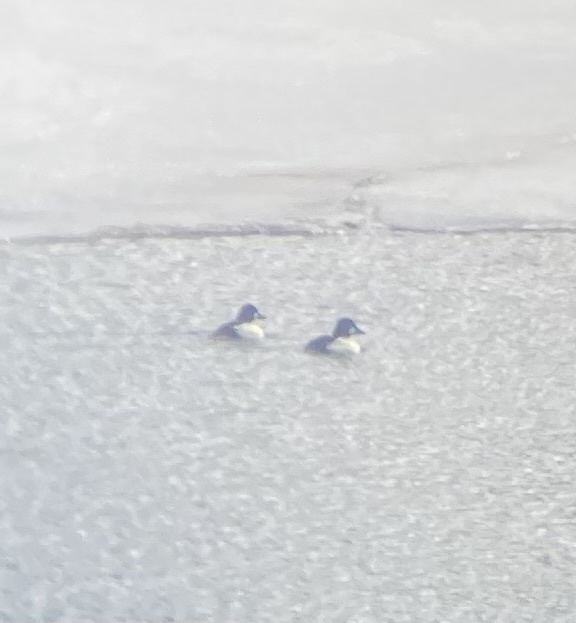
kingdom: Animalia
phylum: Chordata
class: Aves
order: Anseriformes
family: Anatidae
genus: Bucephala
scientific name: Bucephala clangula
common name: Common goldeneye
